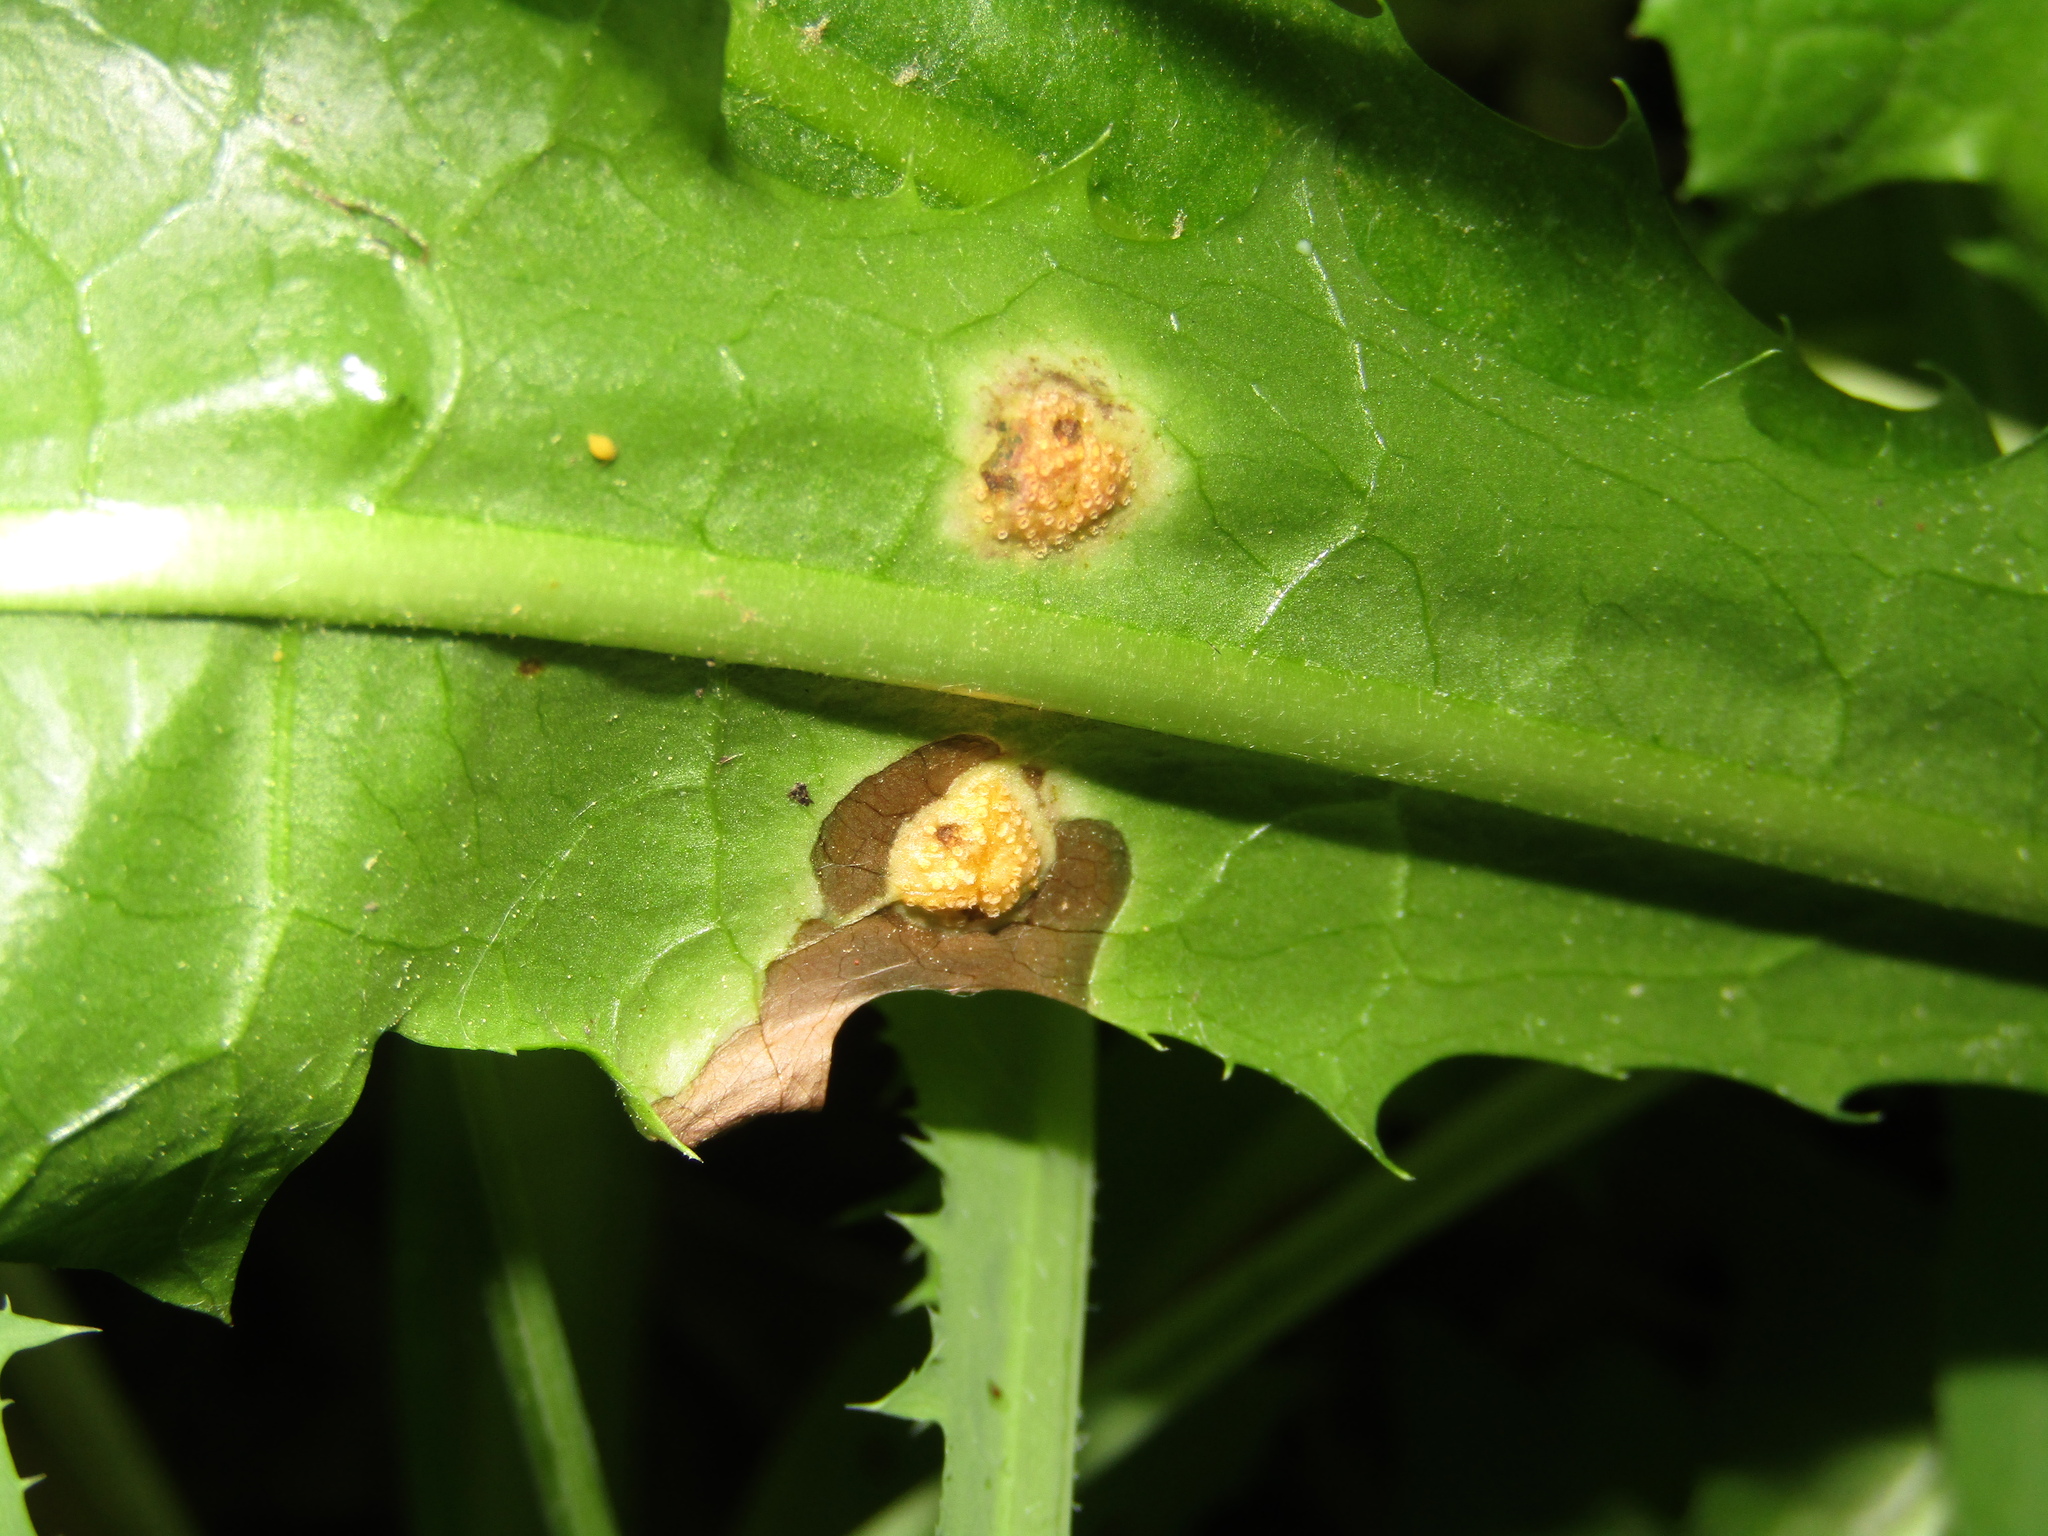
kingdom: Fungi
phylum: Basidiomycota
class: Pucciniomycetes
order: Pucciniales
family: Pucciniaceae
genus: Puccinia
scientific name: Puccinia dioicae
